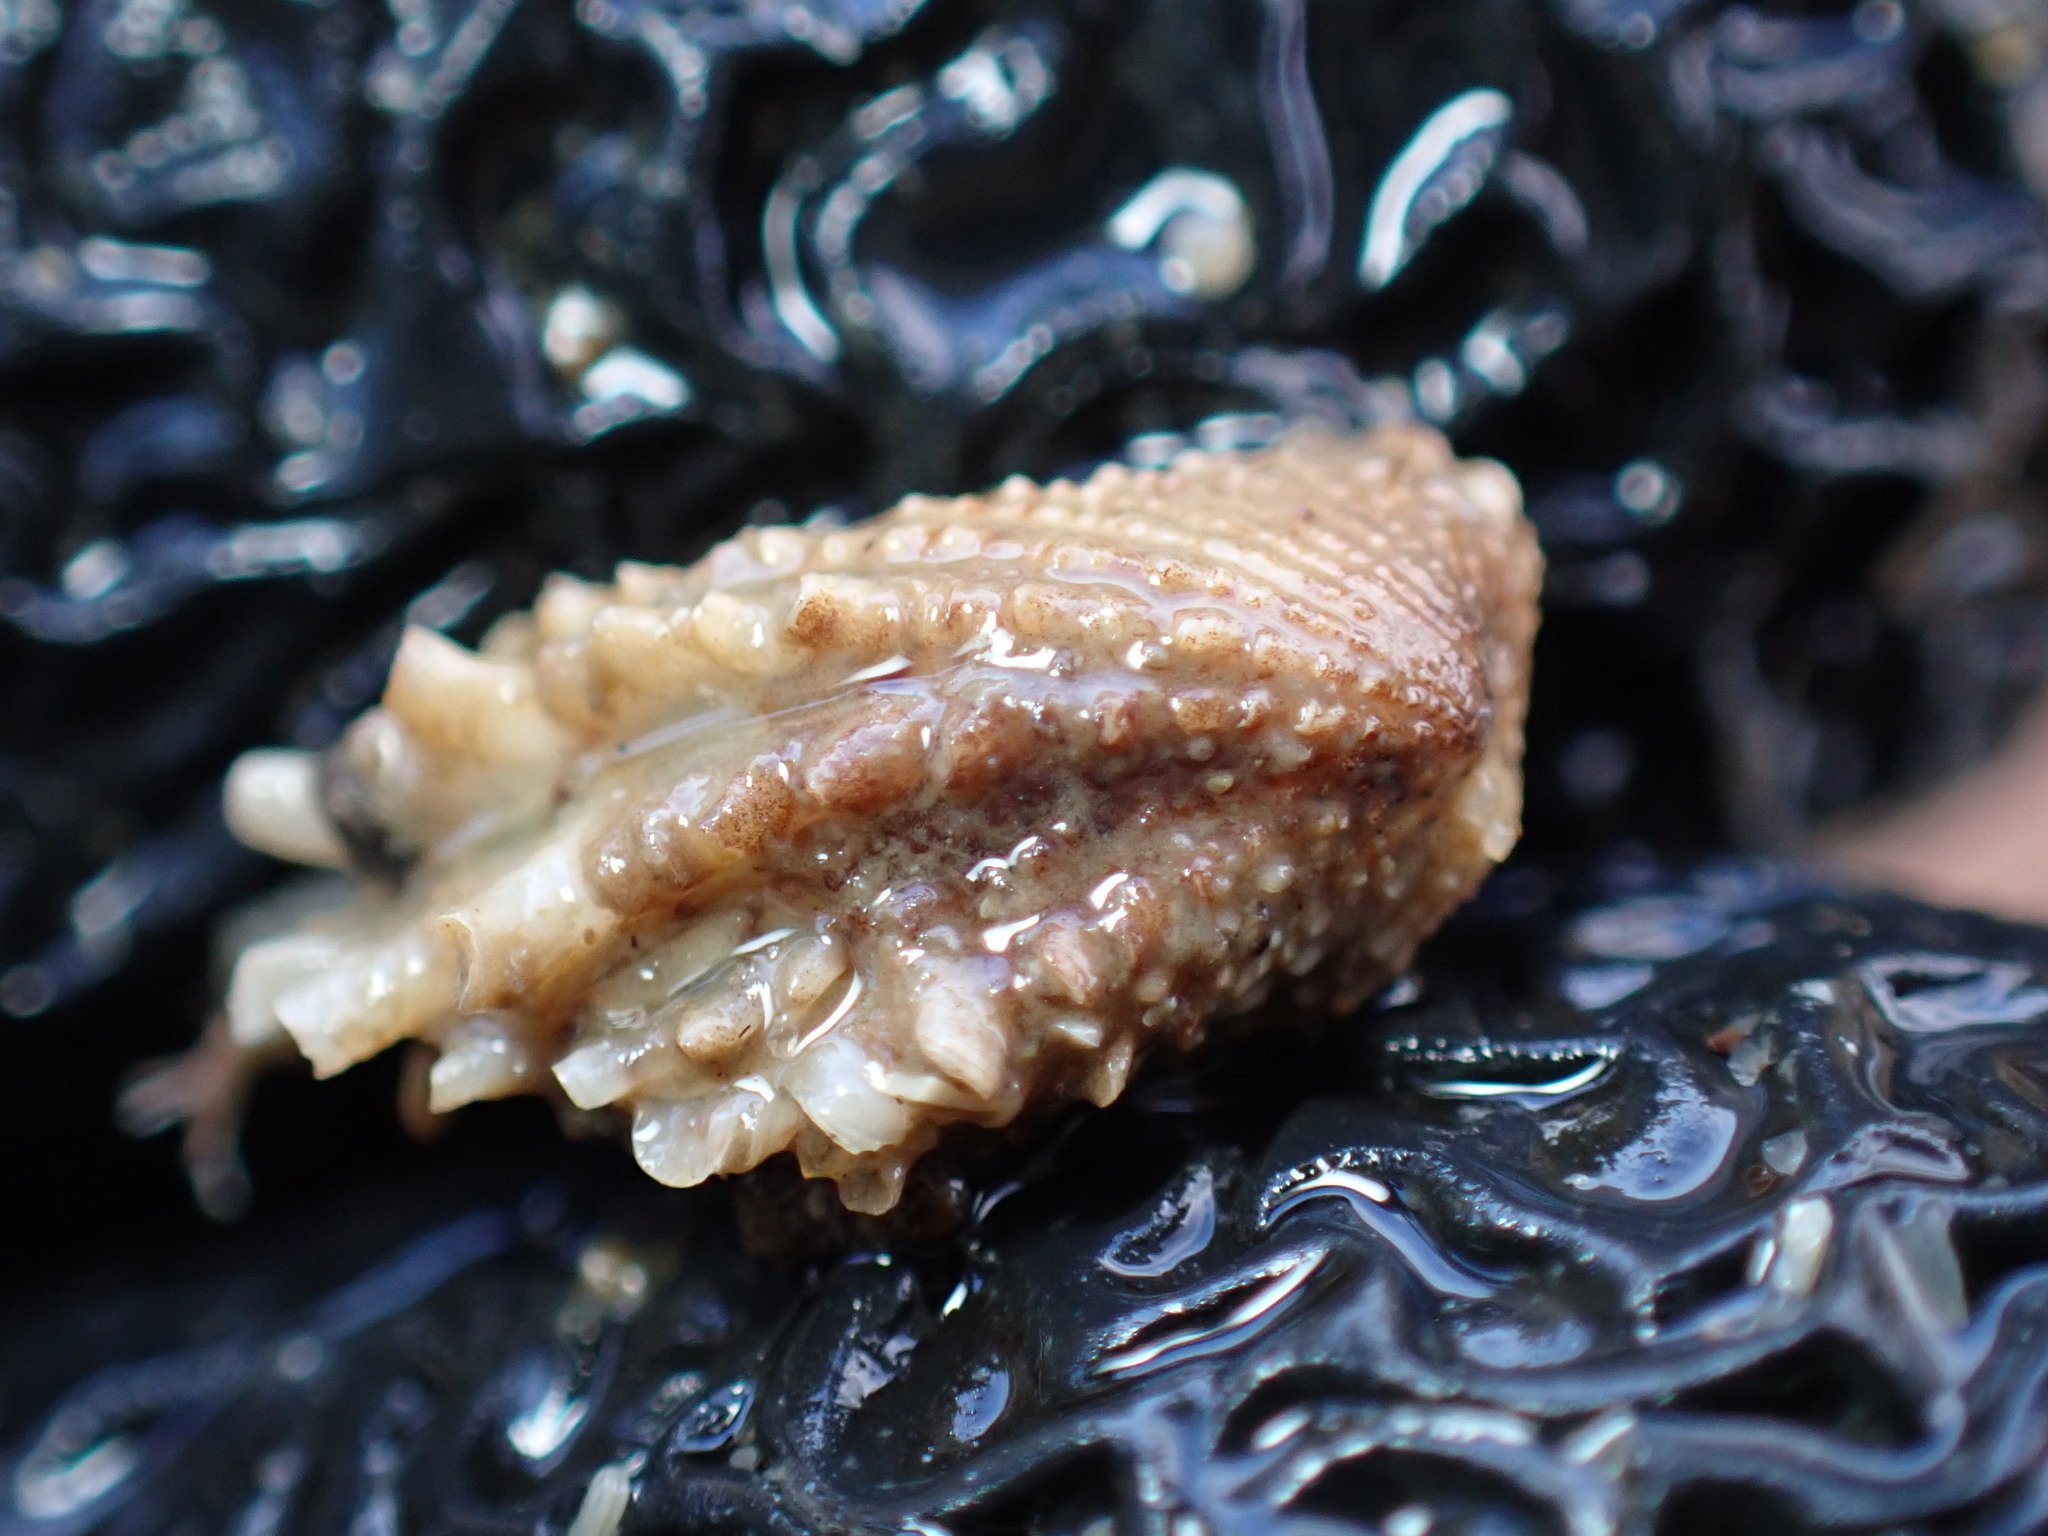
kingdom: Animalia
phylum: Mollusca
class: Bivalvia
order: Carditida
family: Carditidae
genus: Cardita
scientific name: Cardita aviculina
